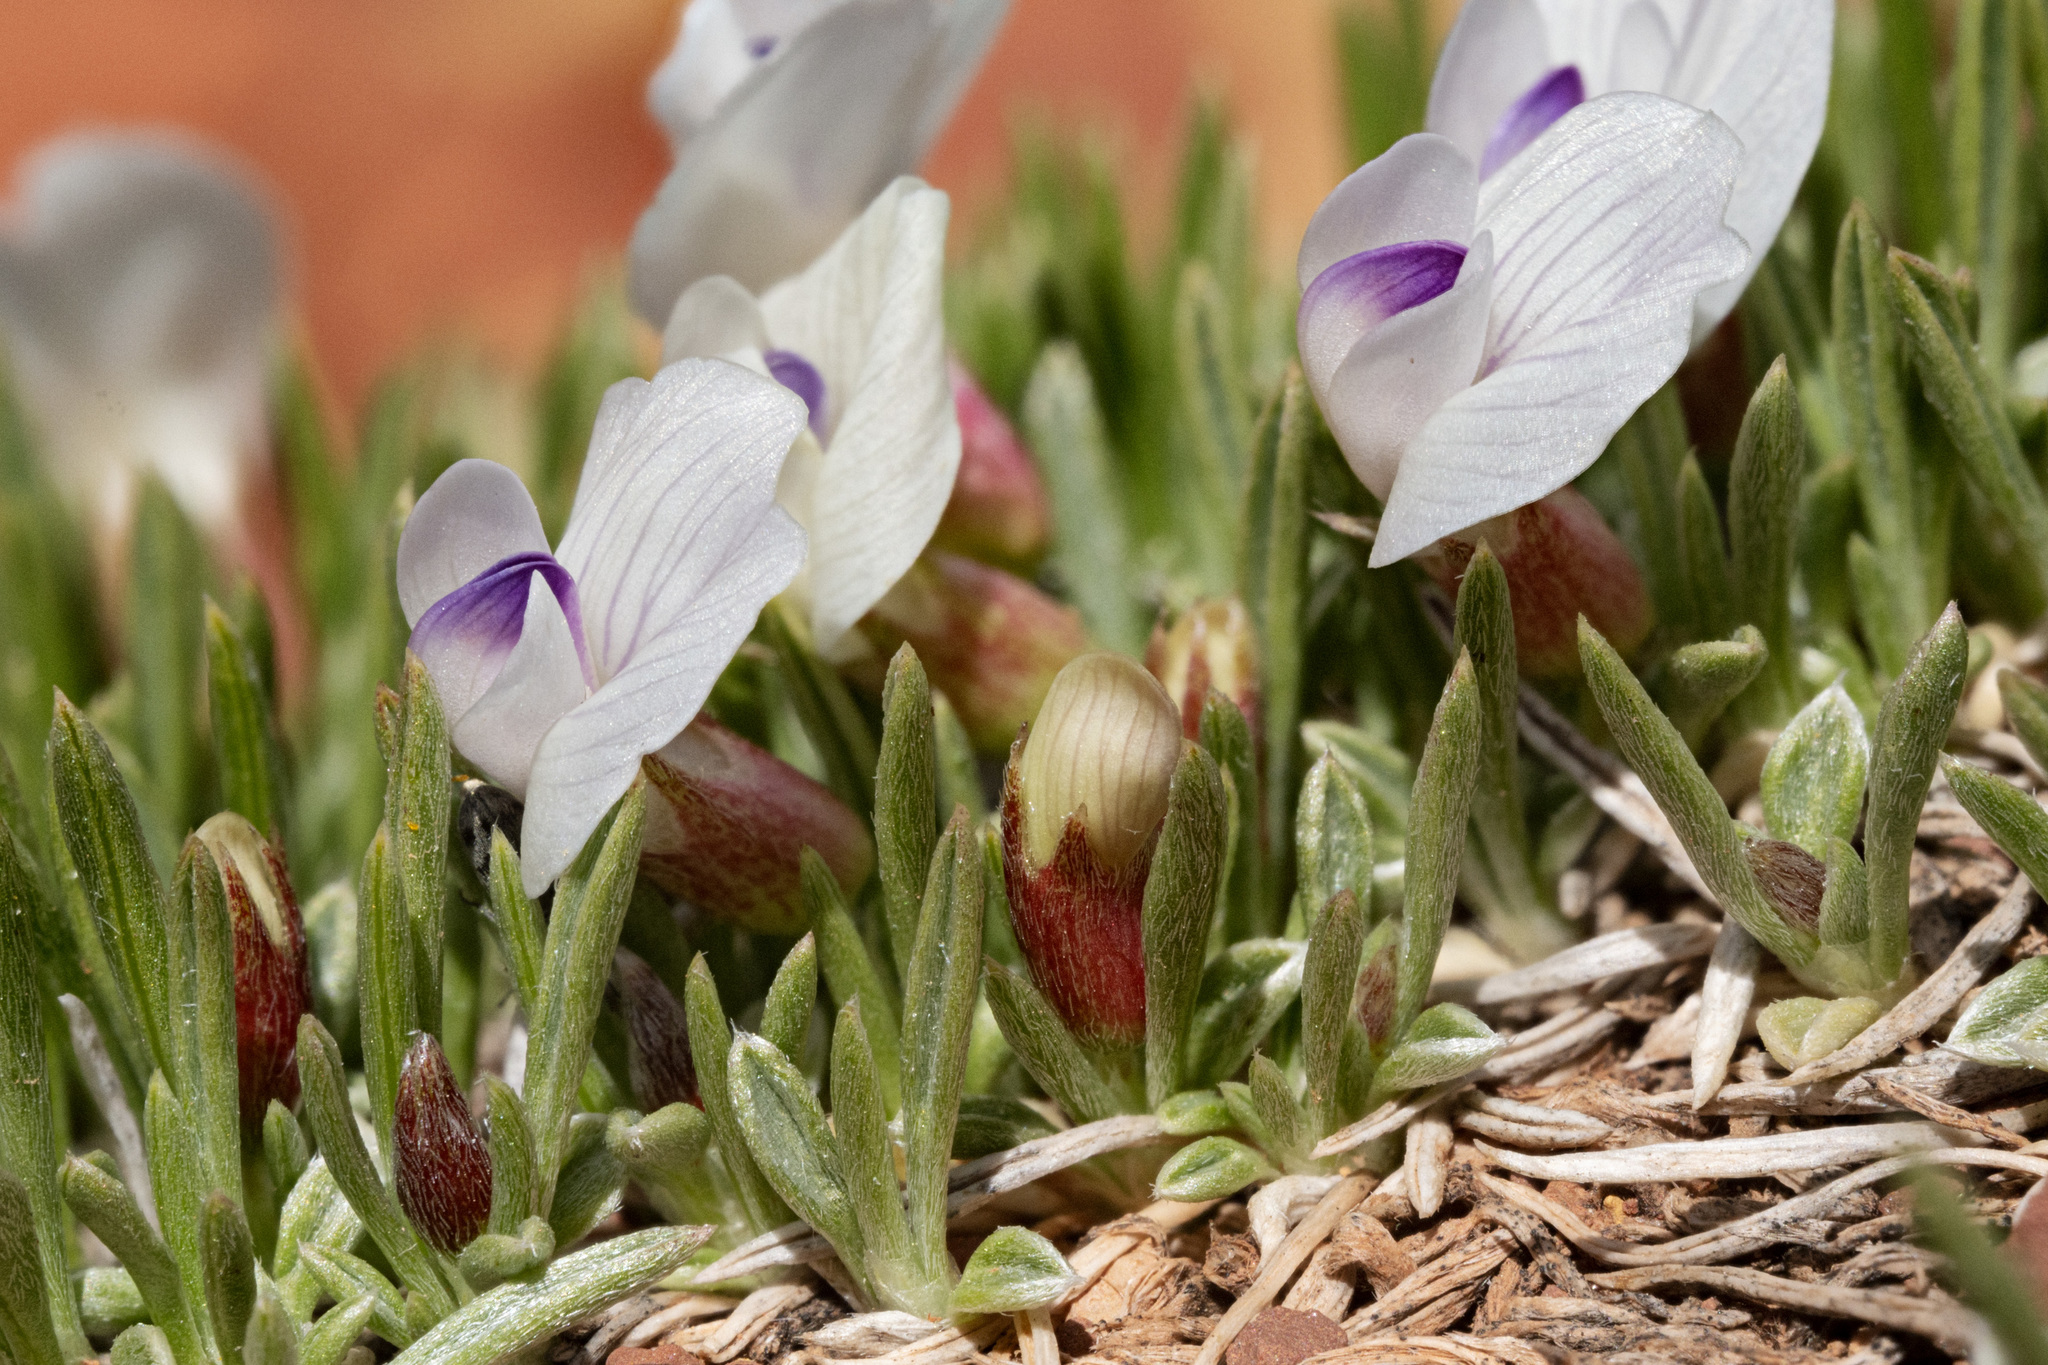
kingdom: Plantae
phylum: Tracheophyta
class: Magnoliopsida
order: Fabales
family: Fabaceae
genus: Astragalus
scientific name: Astragalus simplicifolius
